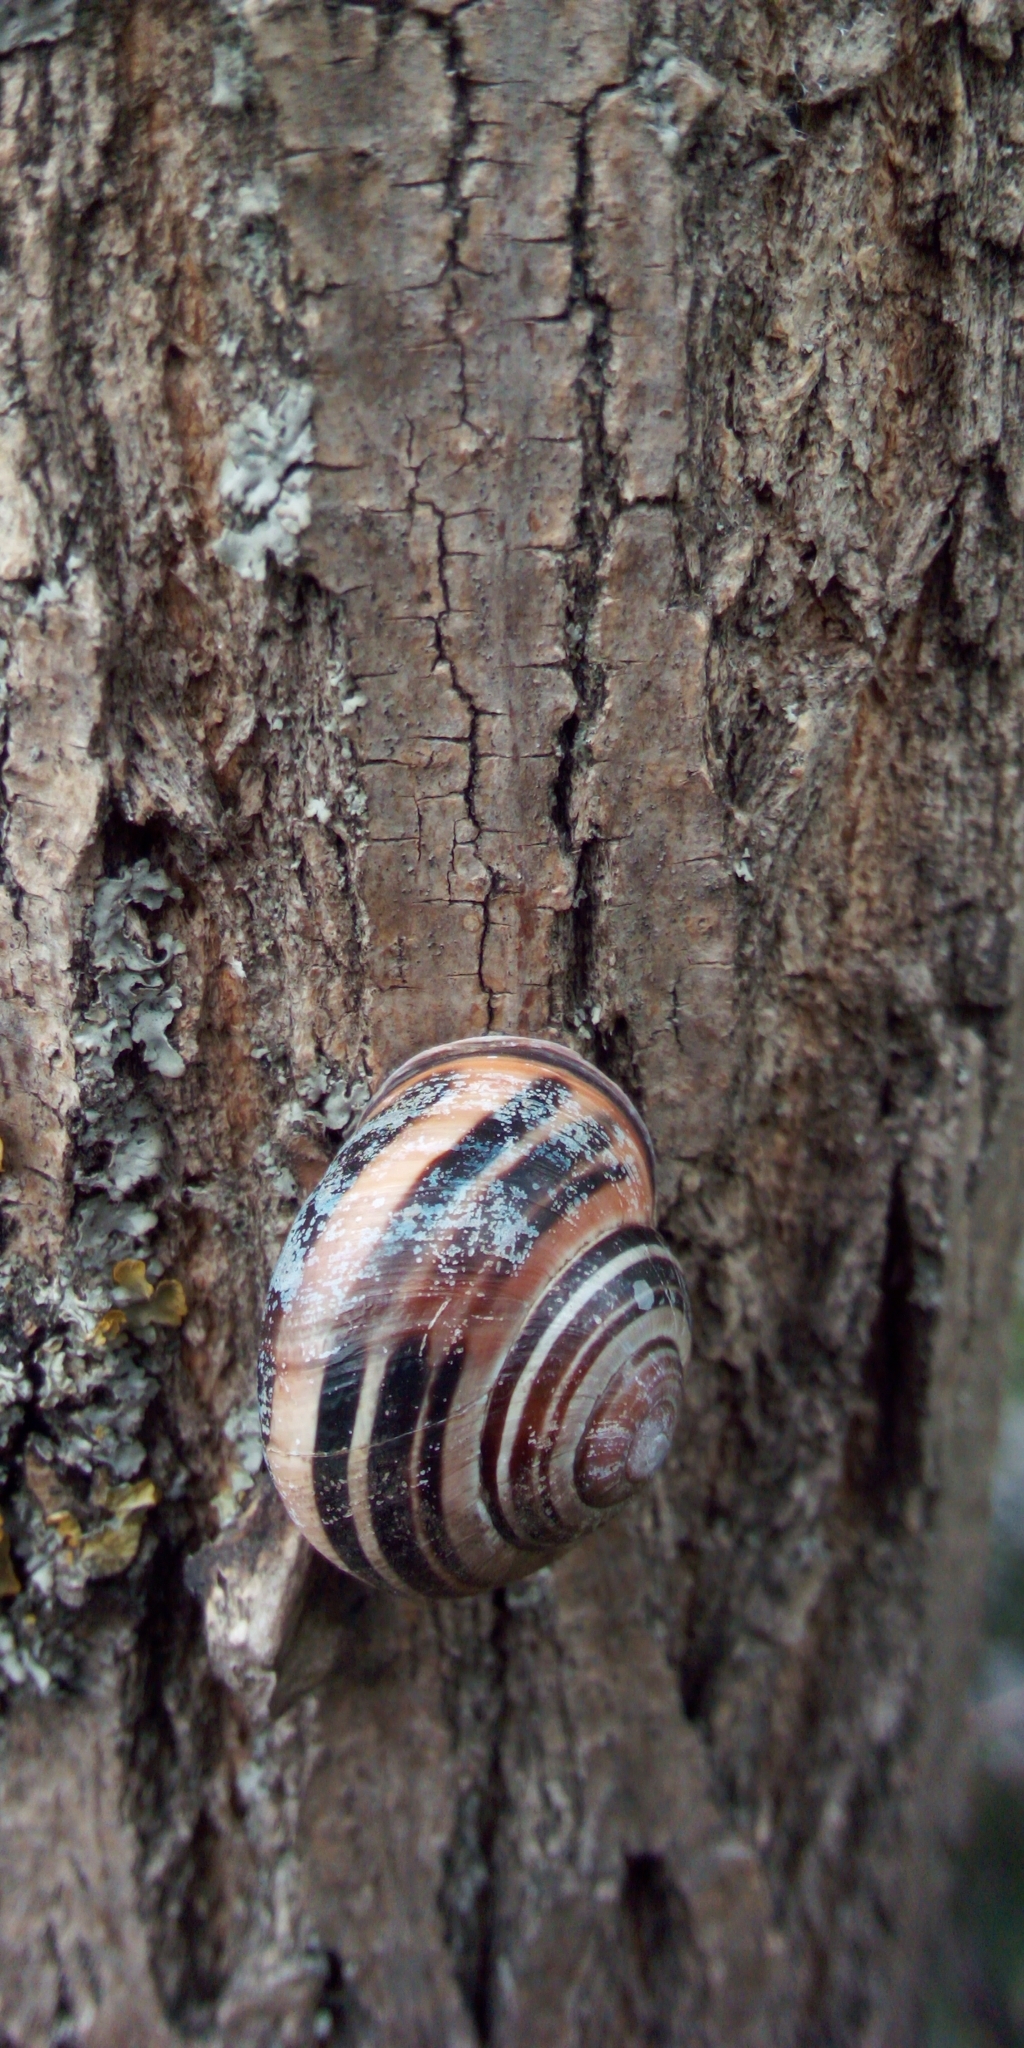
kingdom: Animalia
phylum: Mollusca
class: Gastropoda
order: Stylommatophora
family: Helicidae
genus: Cepaea
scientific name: Cepaea nemoralis
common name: Grovesnail
